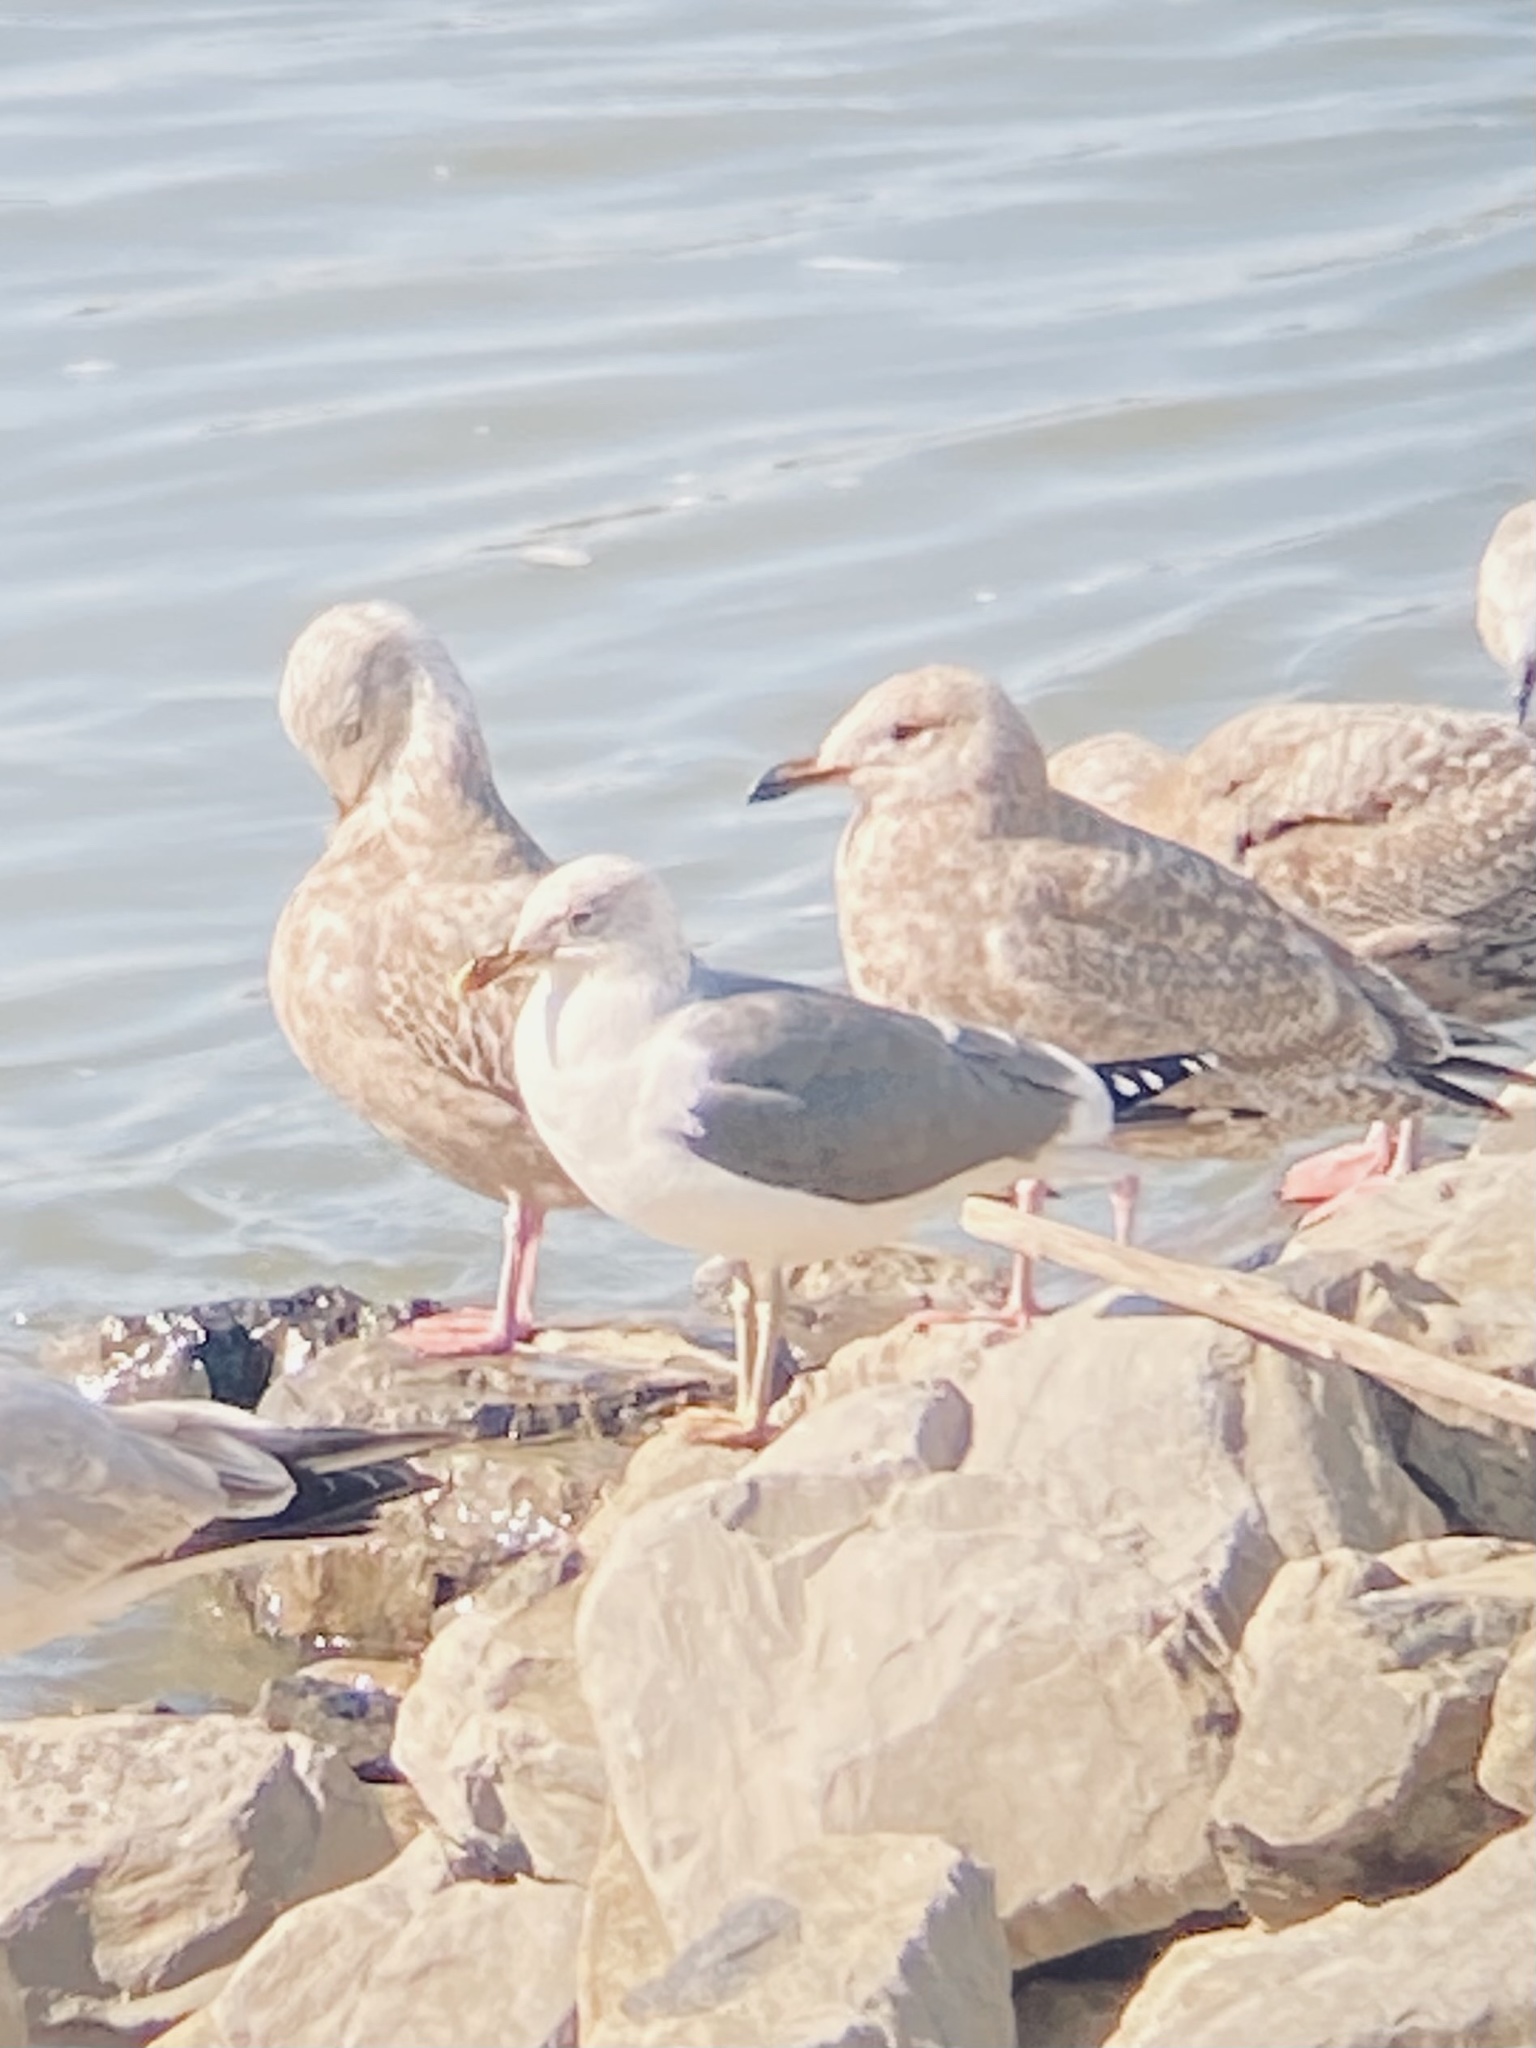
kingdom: Animalia
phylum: Chordata
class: Aves
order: Charadriiformes
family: Laridae
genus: Larus
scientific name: Larus fuscus
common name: Lesser black-backed gull
